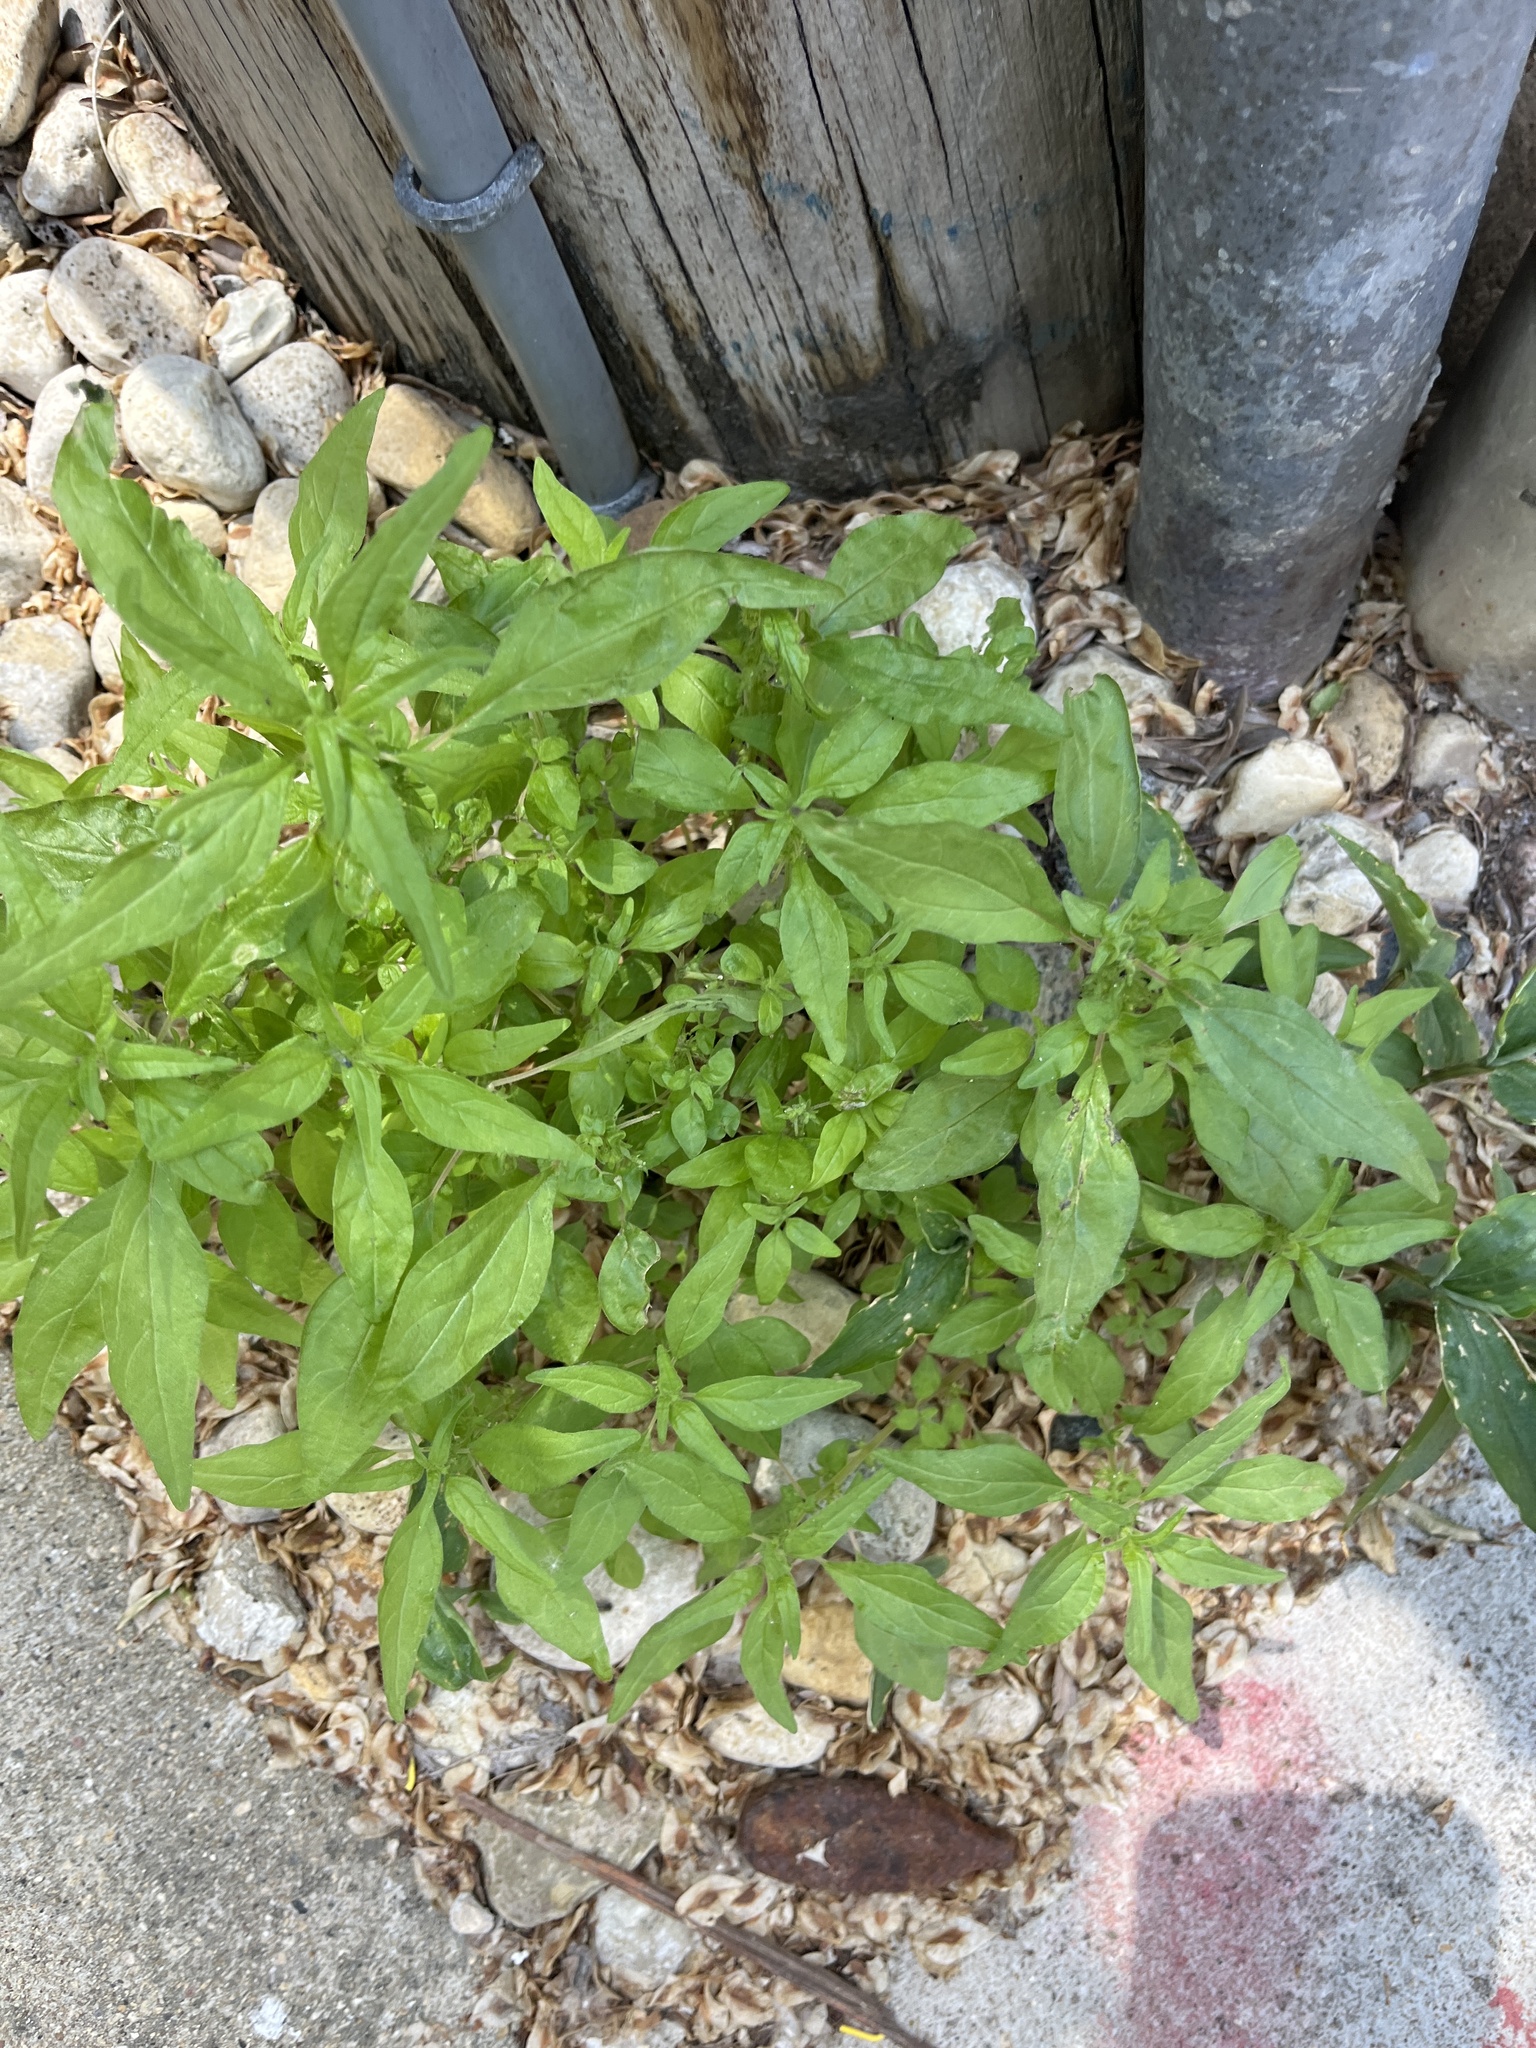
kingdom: Plantae
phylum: Tracheophyta
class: Magnoliopsida
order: Rosales
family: Urticaceae
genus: Parietaria
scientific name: Parietaria pensylvanica
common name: Pennsylvania pellitory
